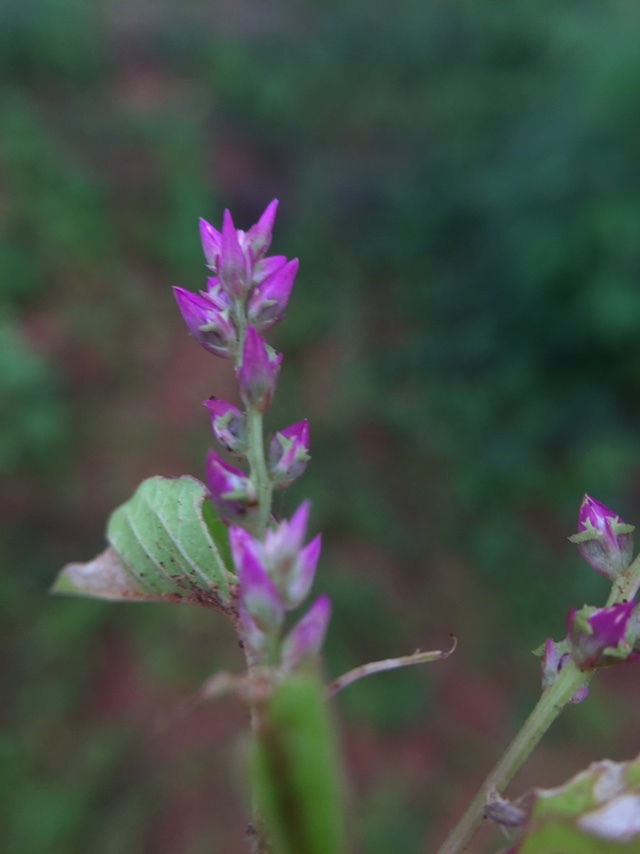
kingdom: Plantae
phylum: Tracheophyta
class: Magnoliopsida
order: Caryophyllales
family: Amaranthaceae
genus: Digera
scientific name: Digera muricata
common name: False amaranth
